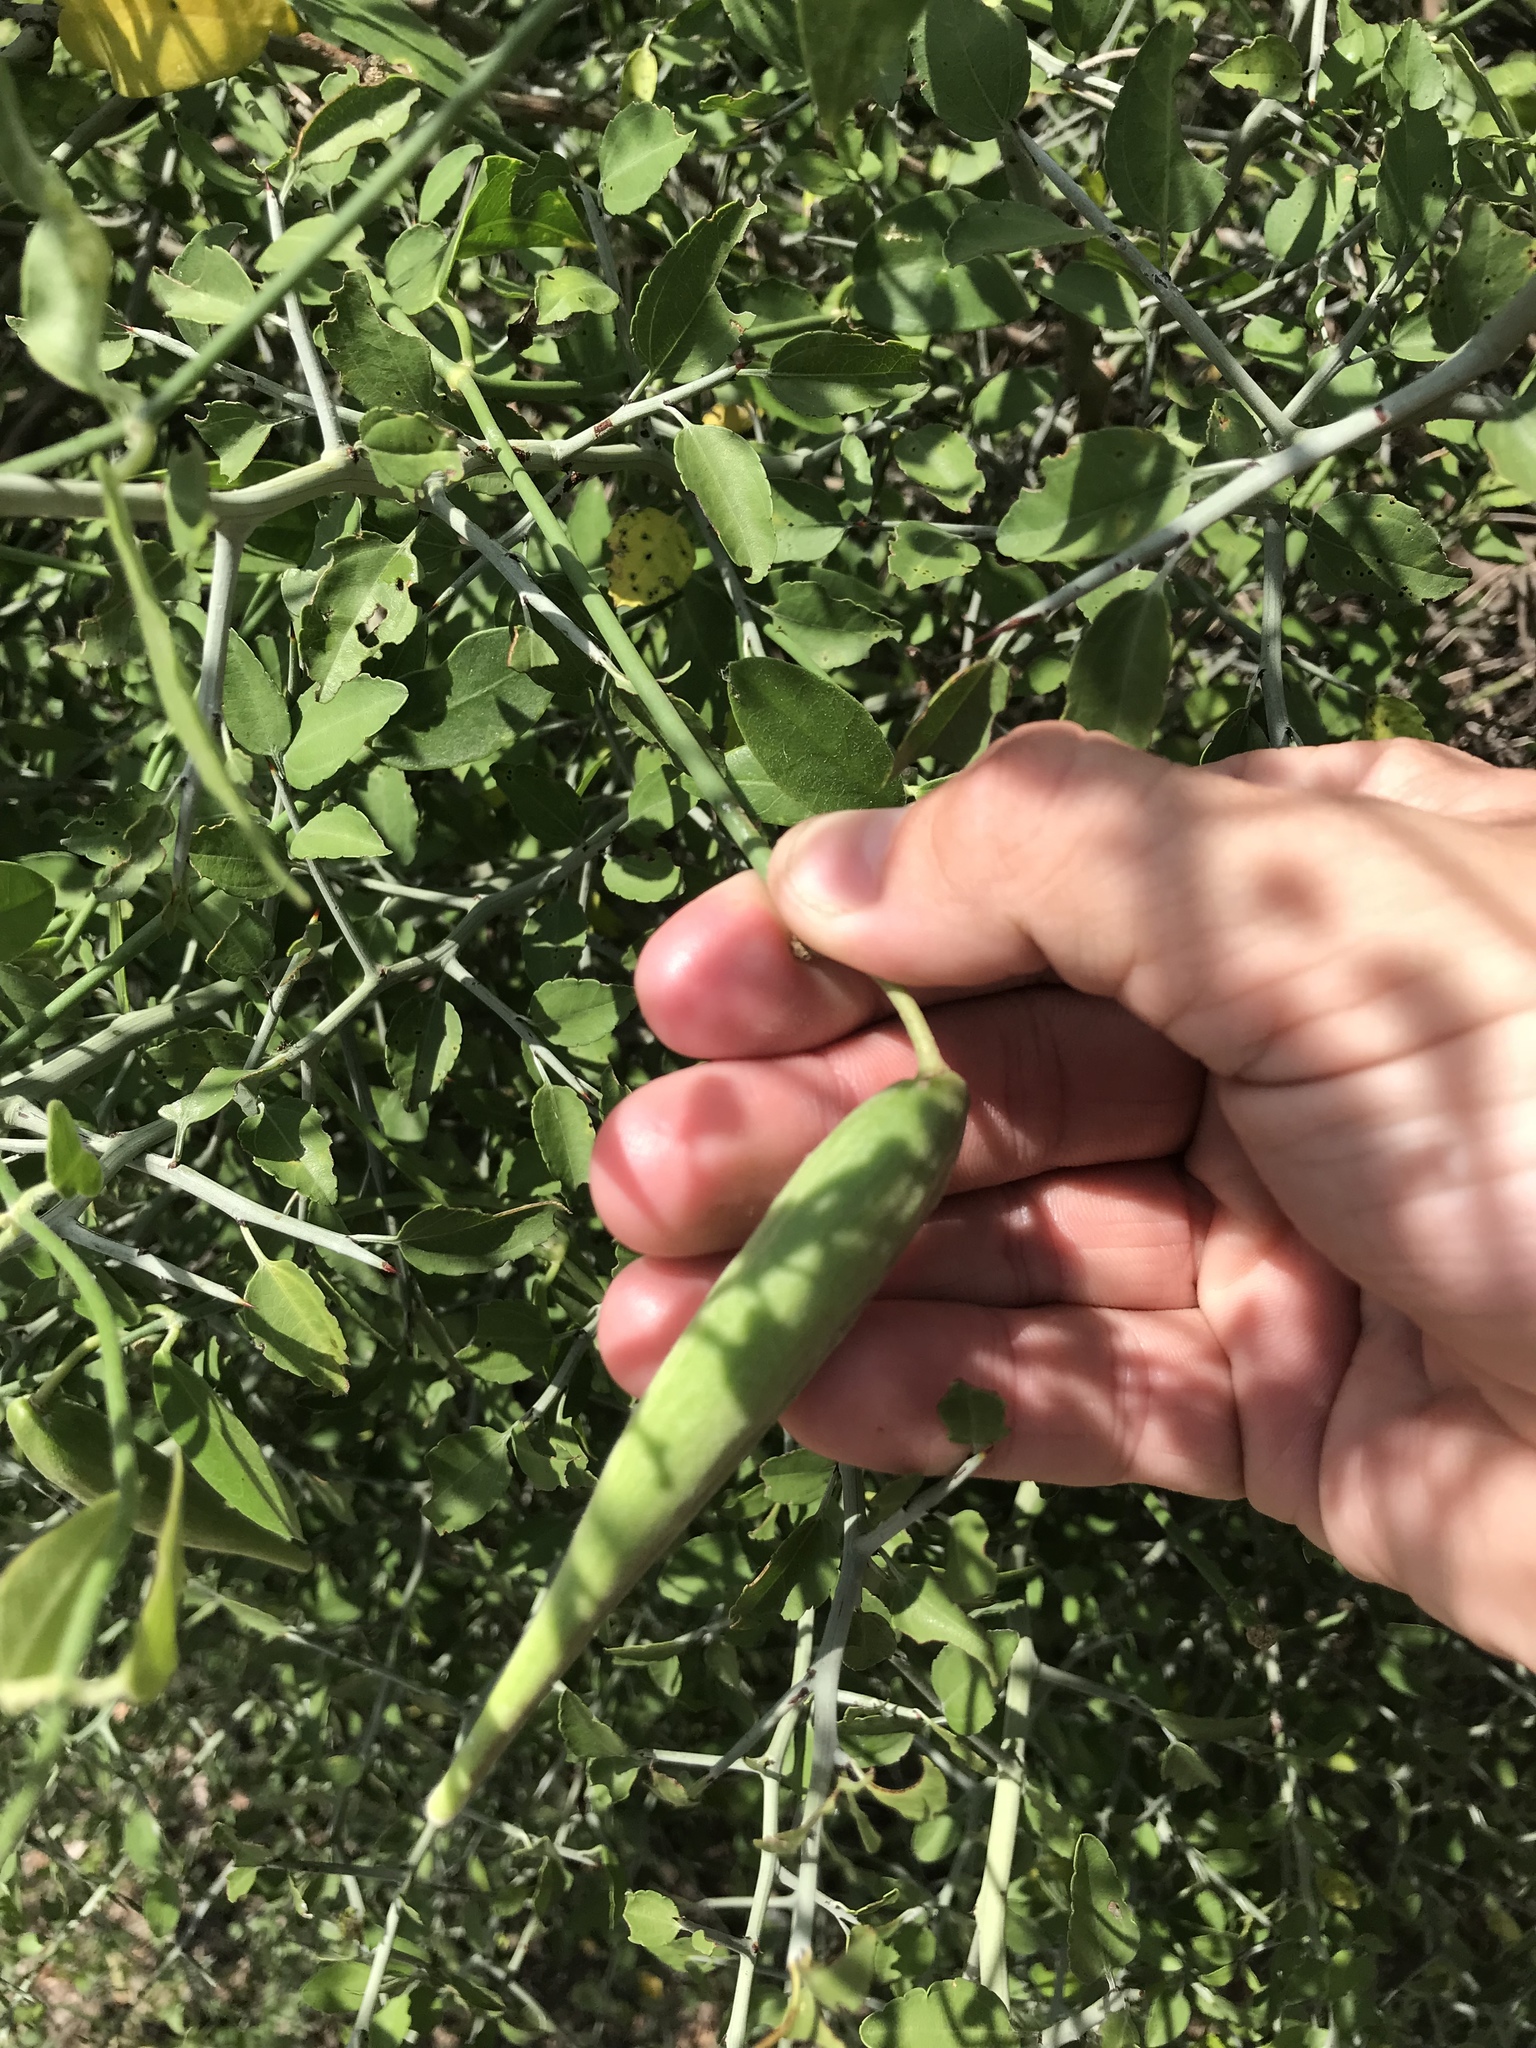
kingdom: Plantae
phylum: Tracheophyta
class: Magnoliopsida
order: Gentianales
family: Apocynaceae
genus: Funastrum
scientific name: Funastrum clausum
